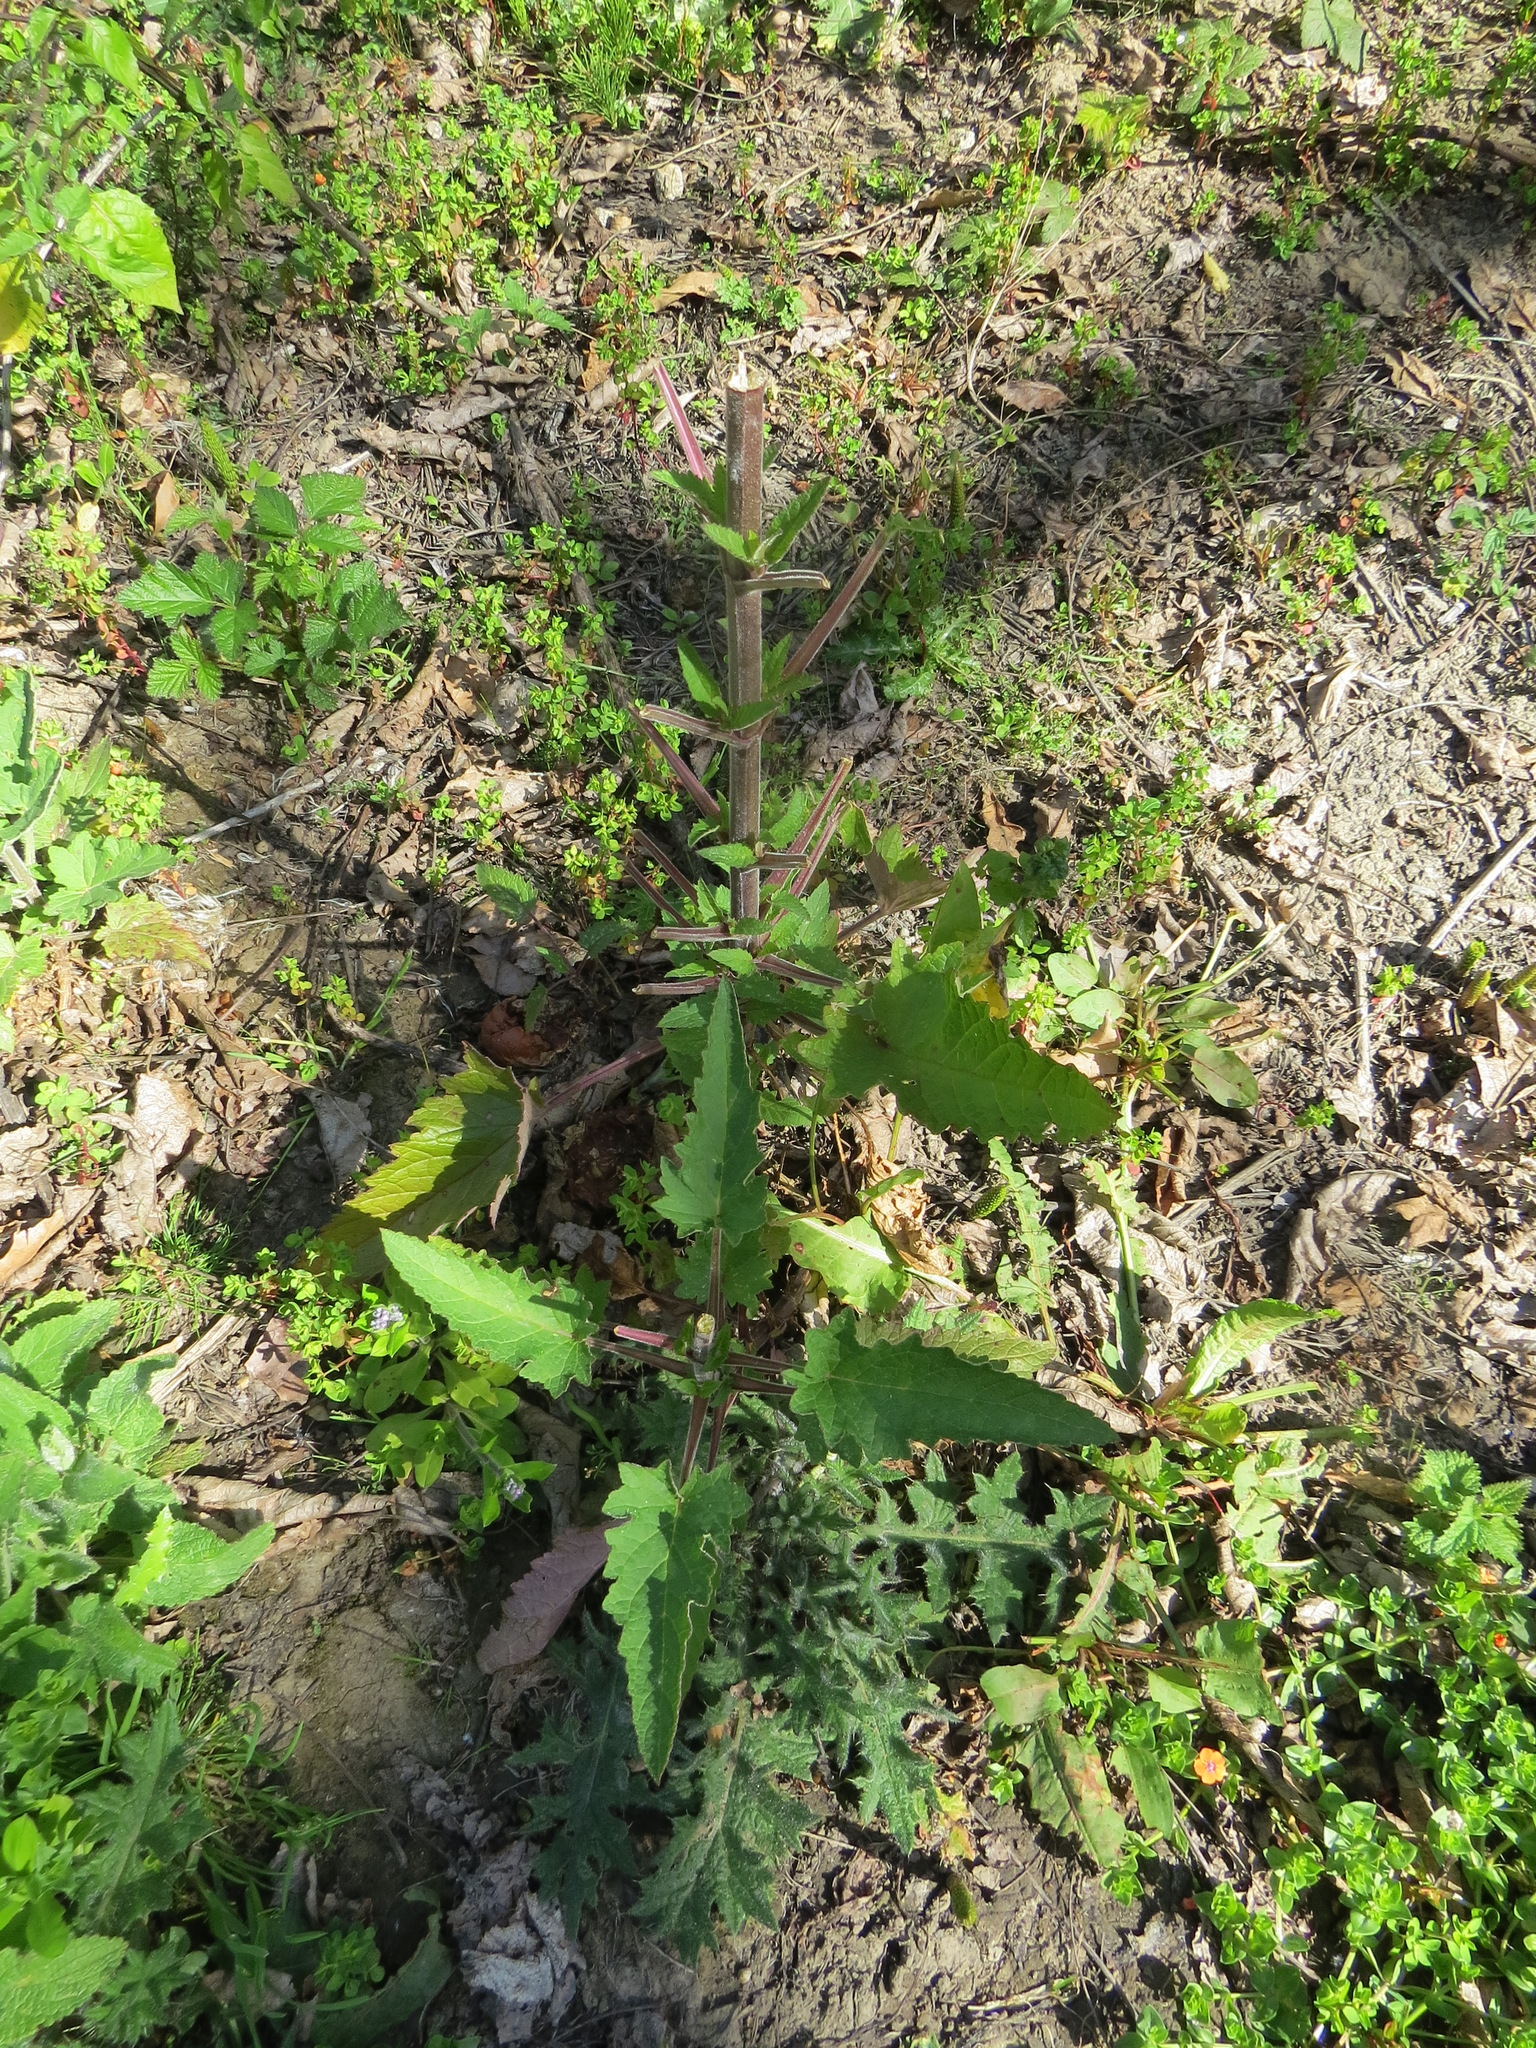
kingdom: Animalia
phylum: Chordata
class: Mammalia
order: Artiodactyla
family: Cervidae
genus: Odocoileus
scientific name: Odocoileus hemionus
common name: Mule deer
